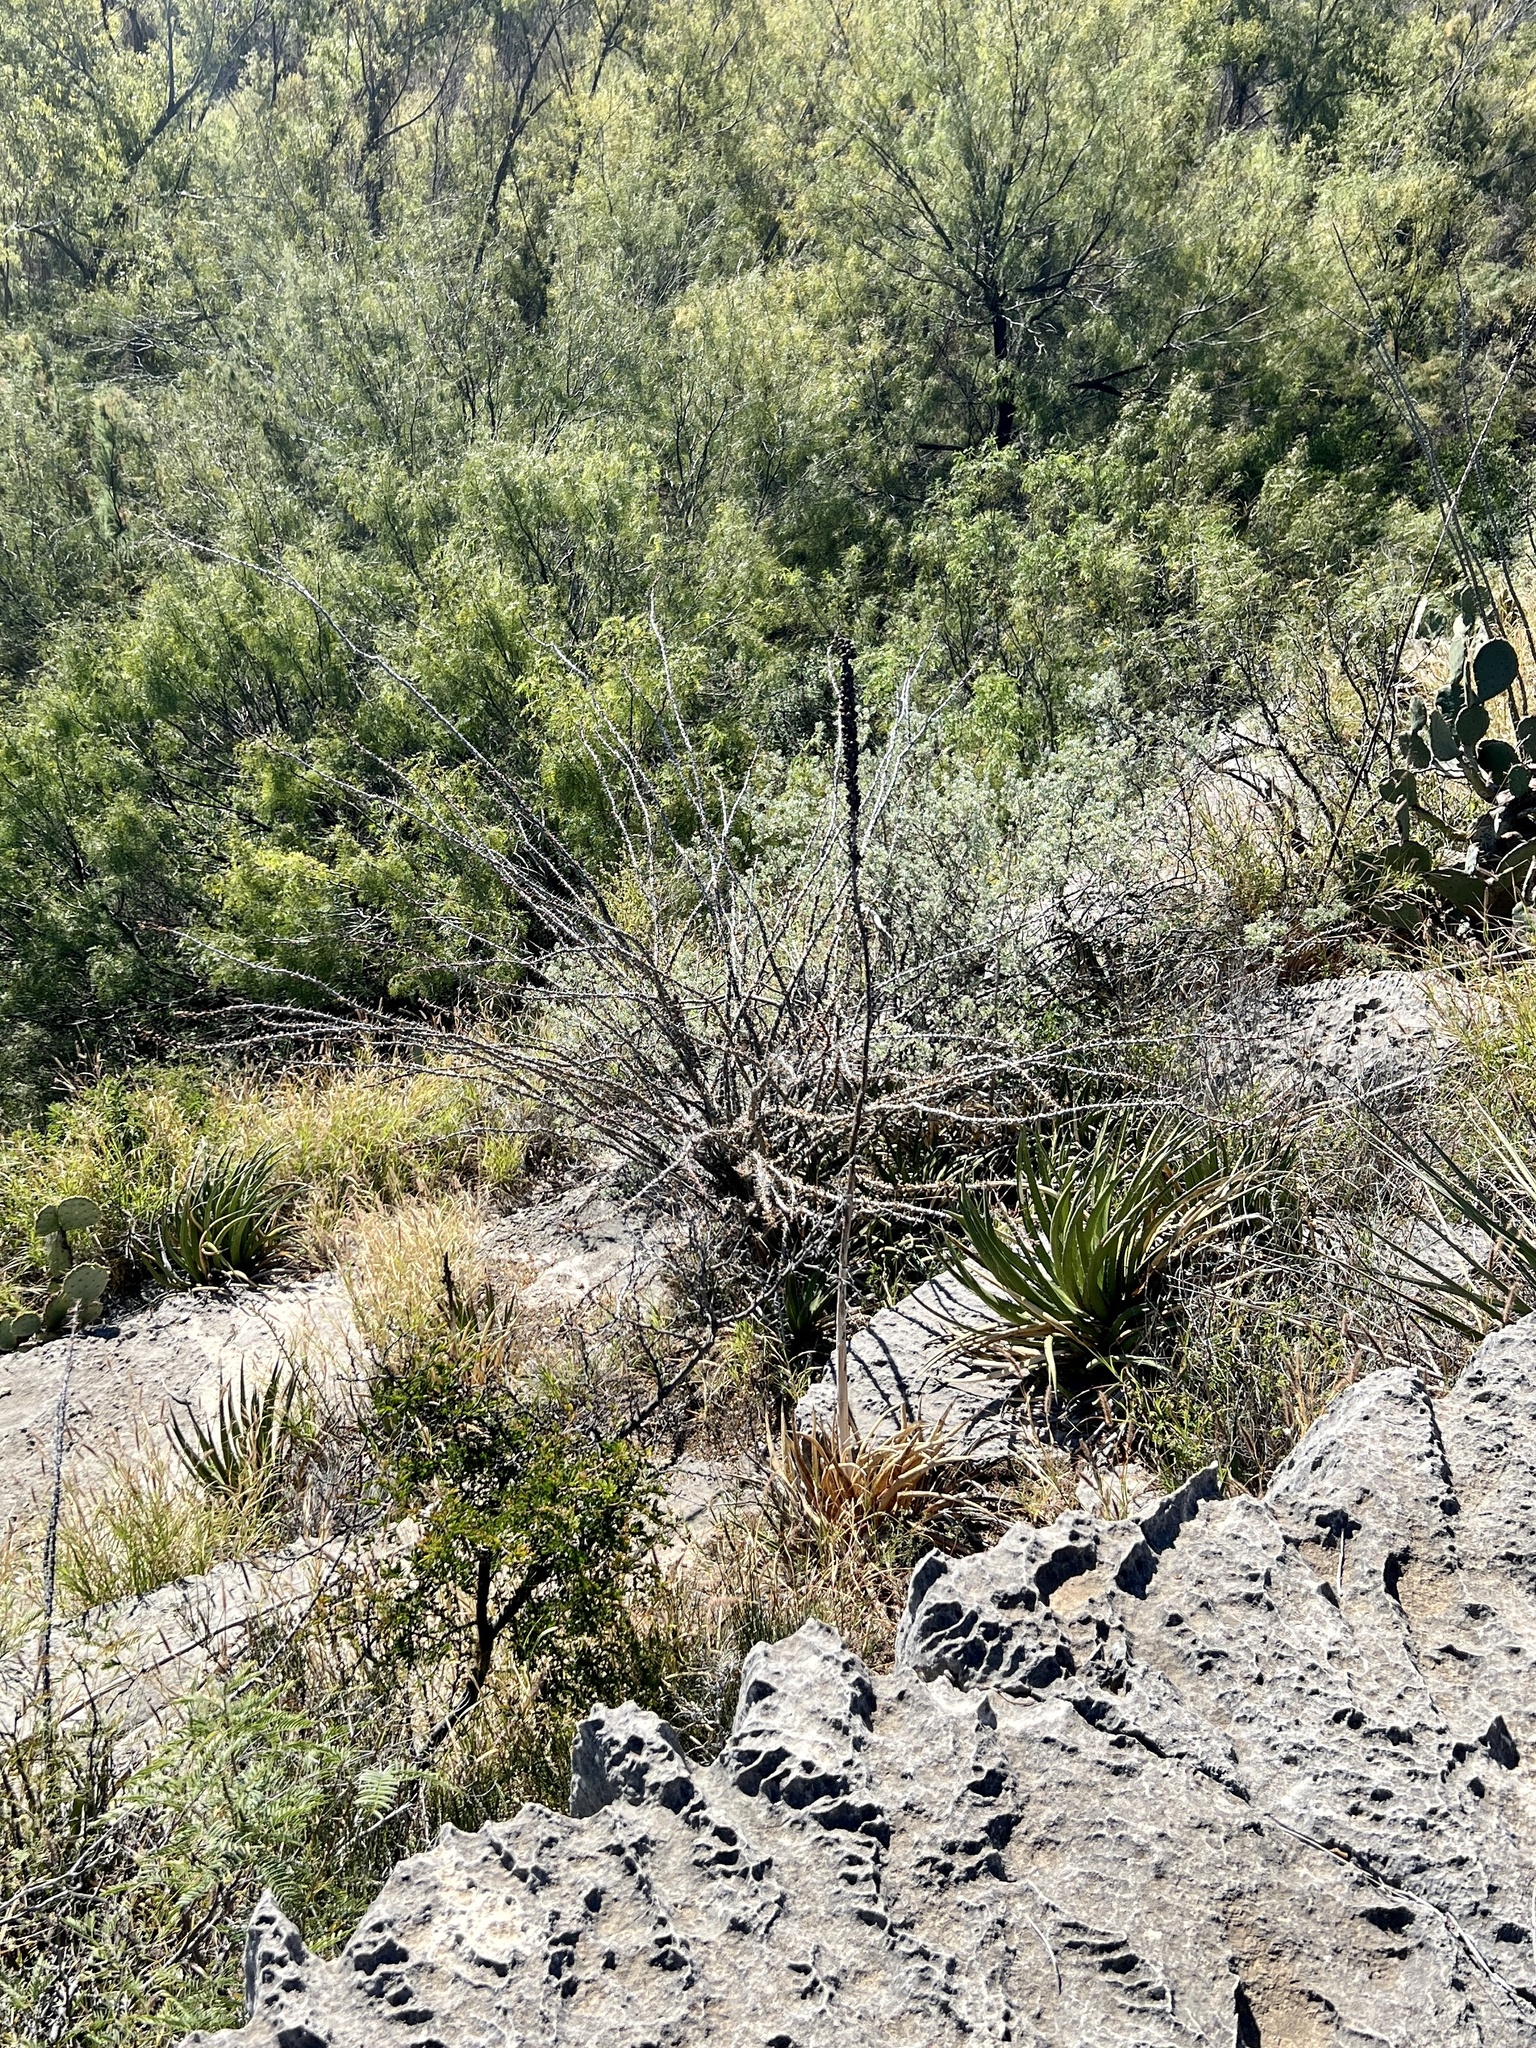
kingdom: Plantae
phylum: Tracheophyta
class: Magnoliopsida
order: Ericales
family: Fouquieriaceae
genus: Fouquieria
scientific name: Fouquieria splendens
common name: Vine-cactus
